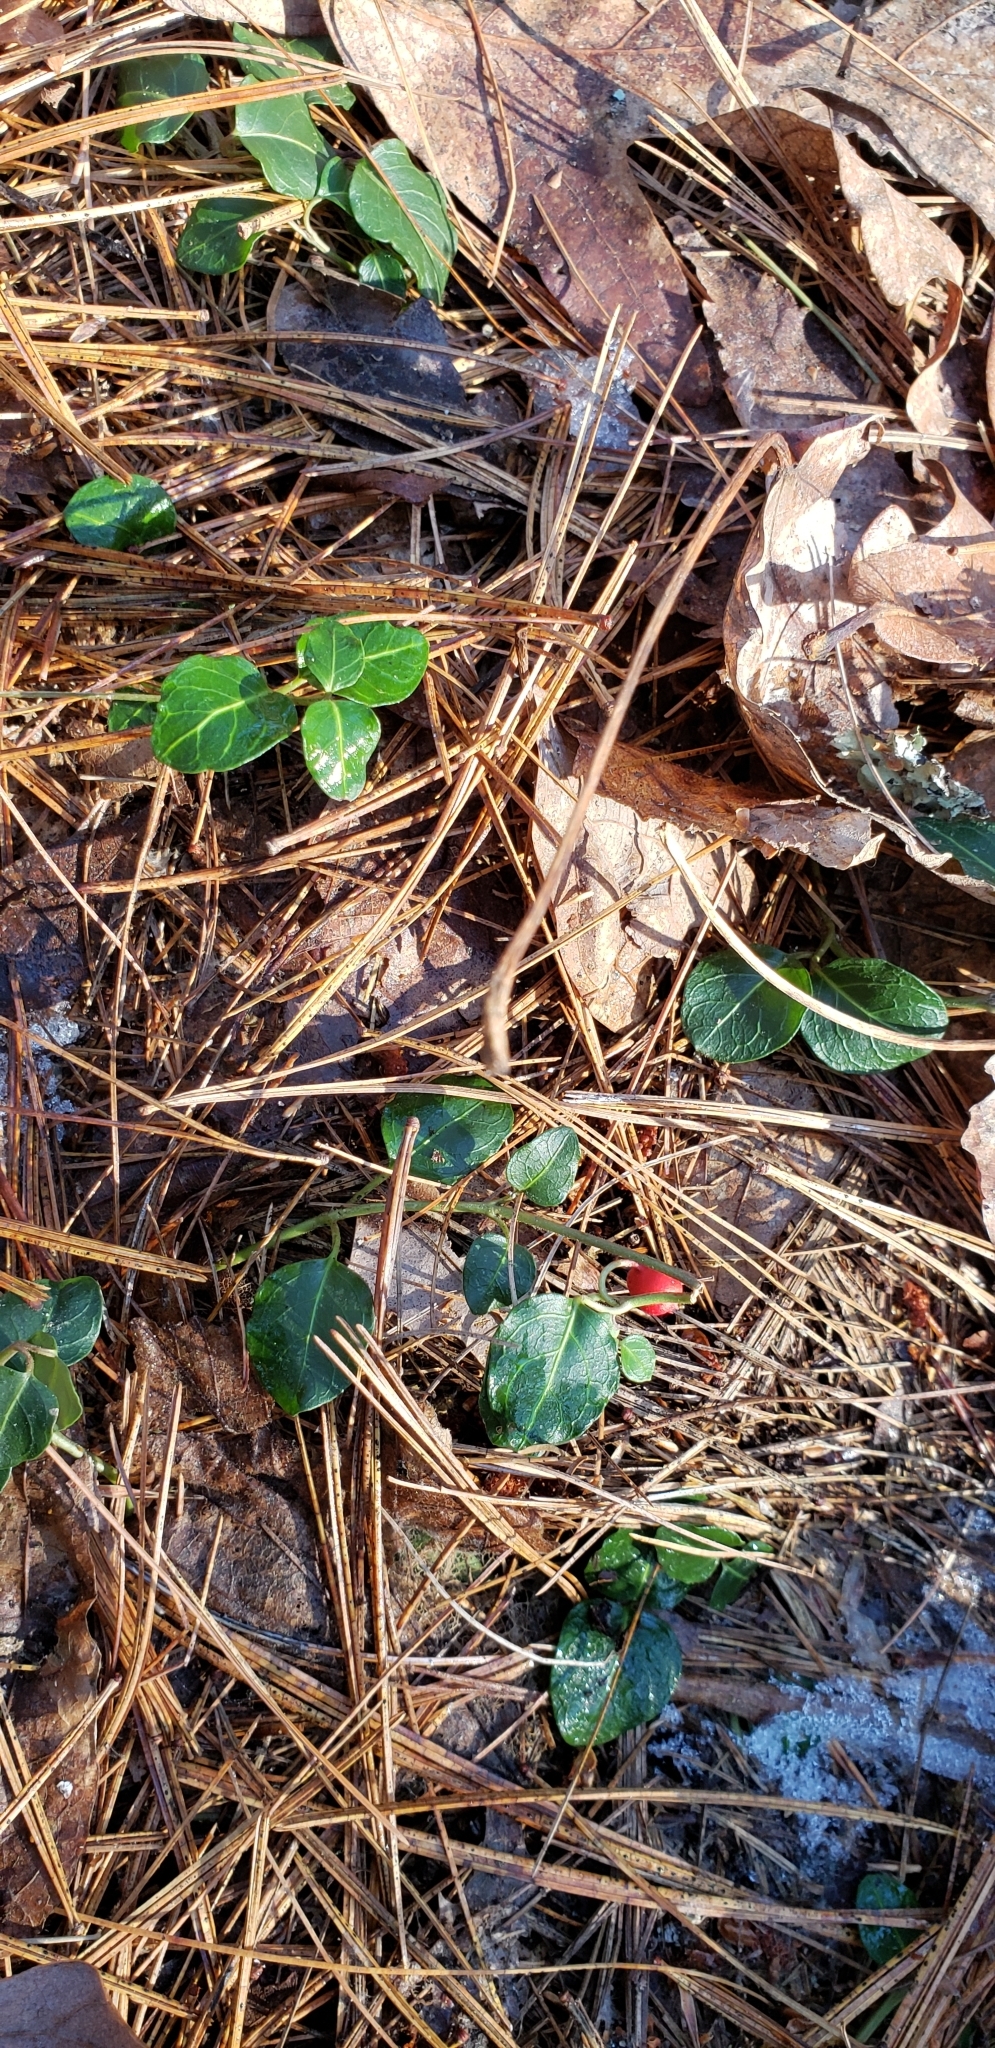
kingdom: Plantae
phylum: Tracheophyta
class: Magnoliopsida
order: Gentianales
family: Rubiaceae
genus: Mitchella
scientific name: Mitchella repens
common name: Partridge-berry
